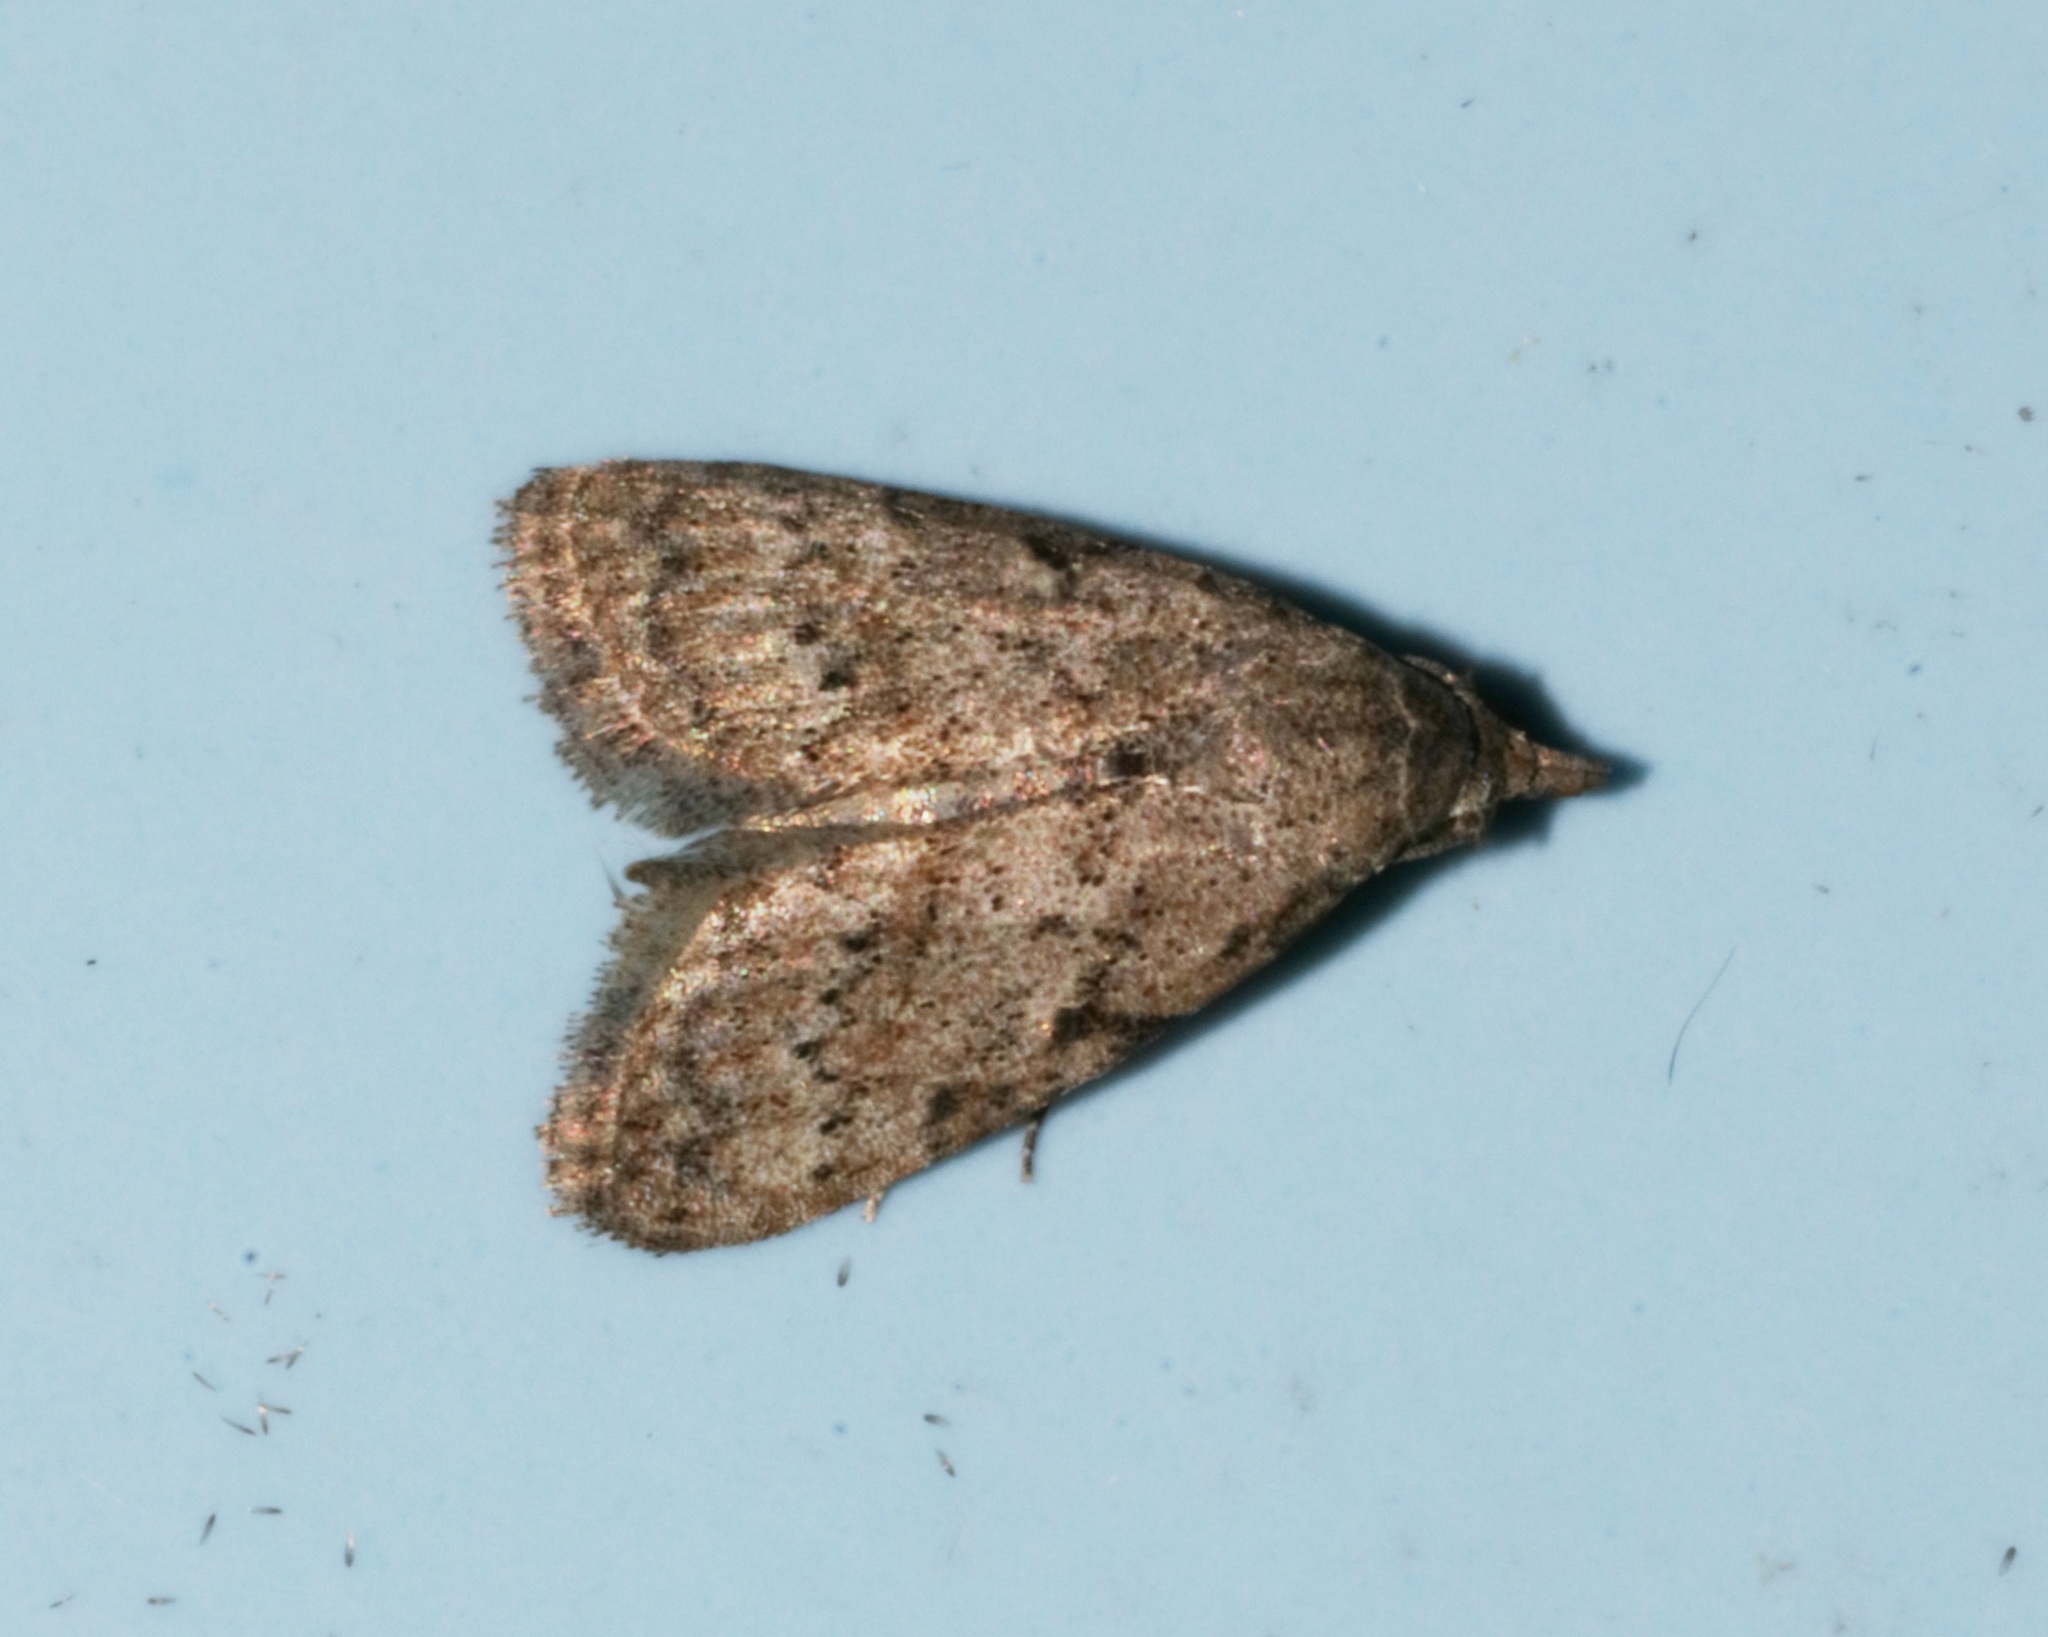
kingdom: Animalia
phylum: Arthropoda
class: Insecta
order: Lepidoptera
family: Nolidae
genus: Nola
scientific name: Nola ceylonica
